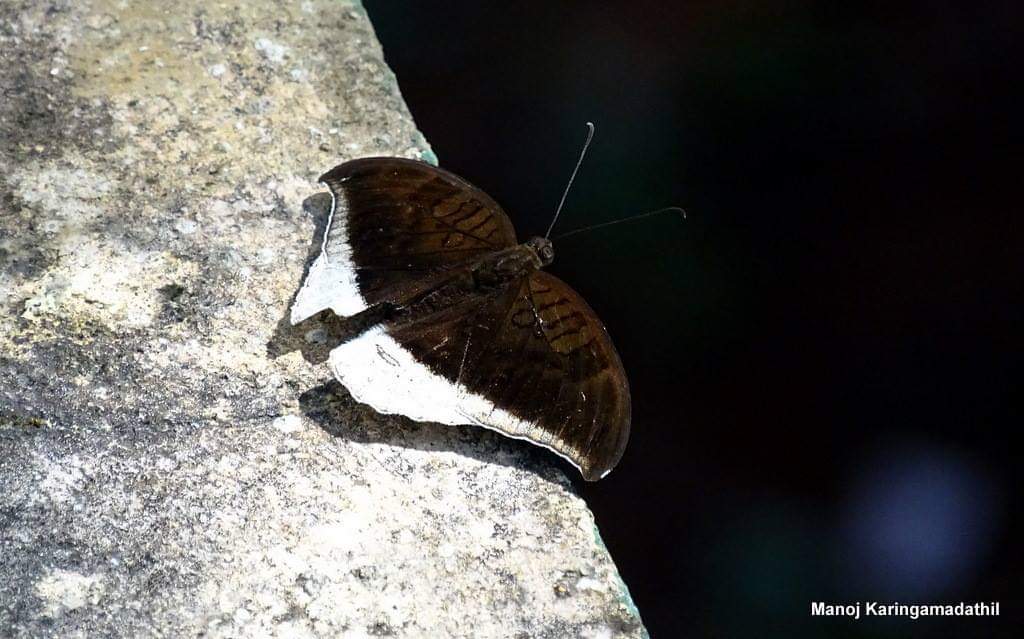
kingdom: Animalia
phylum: Arthropoda
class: Insecta
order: Lepidoptera
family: Nymphalidae
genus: Tanaecia
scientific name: Tanaecia lepidea
